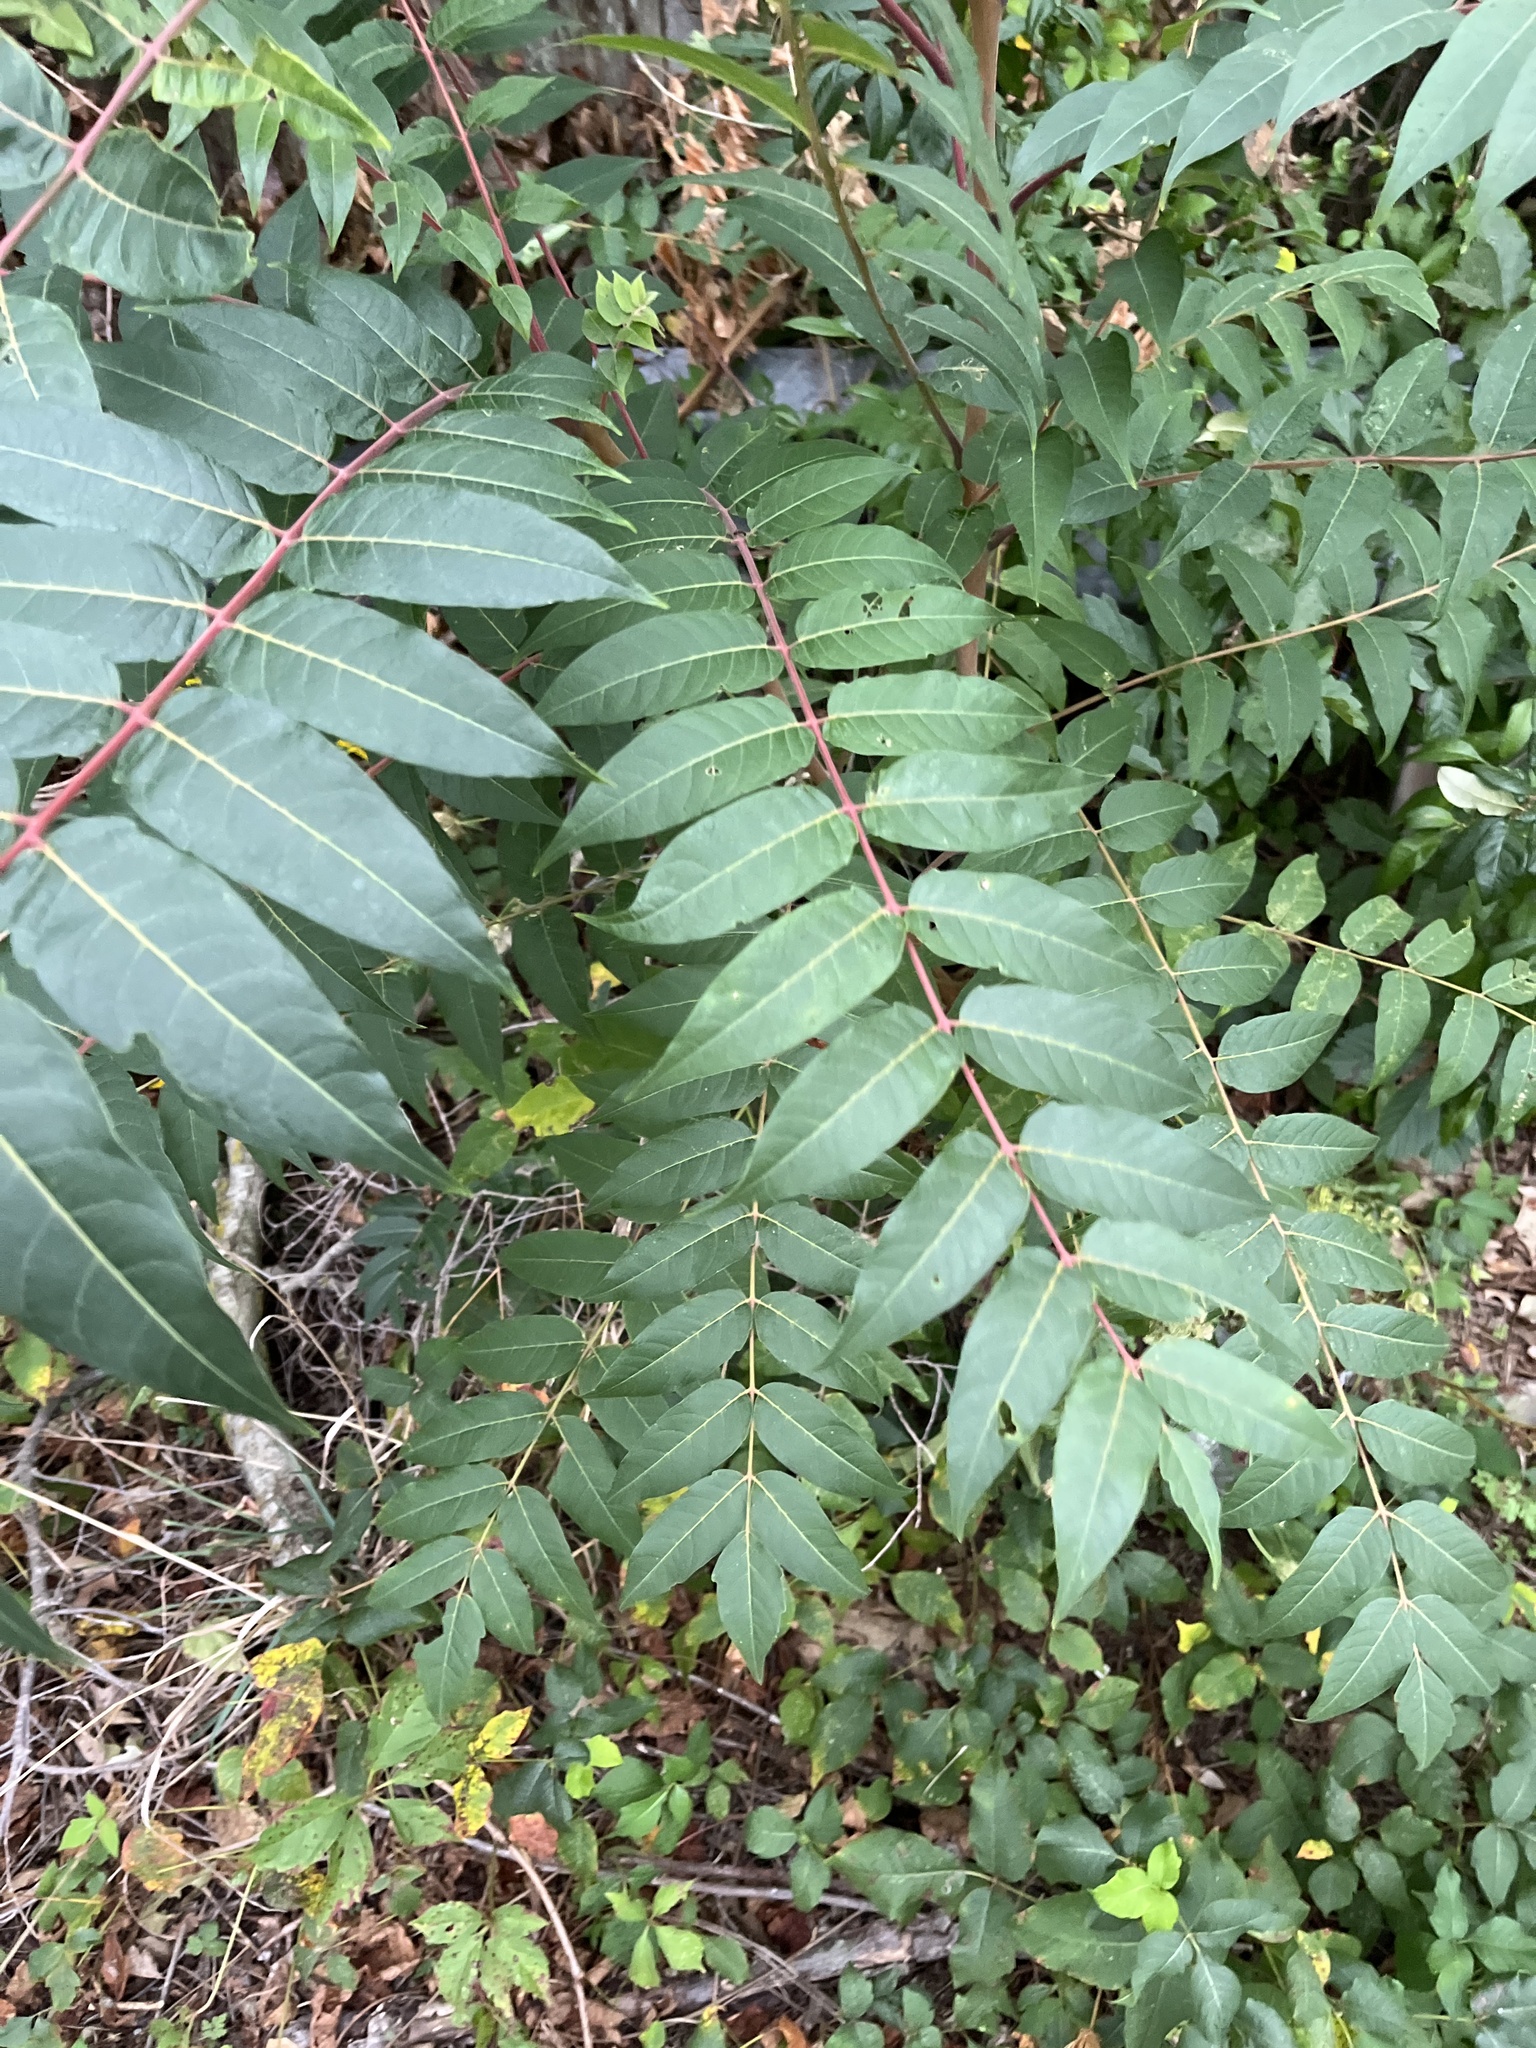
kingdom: Plantae
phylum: Tracheophyta
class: Magnoliopsida
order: Sapindales
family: Simaroubaceae
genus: Ailanthus
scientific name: Ailanthus altissima
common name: Tree-of-heaven
